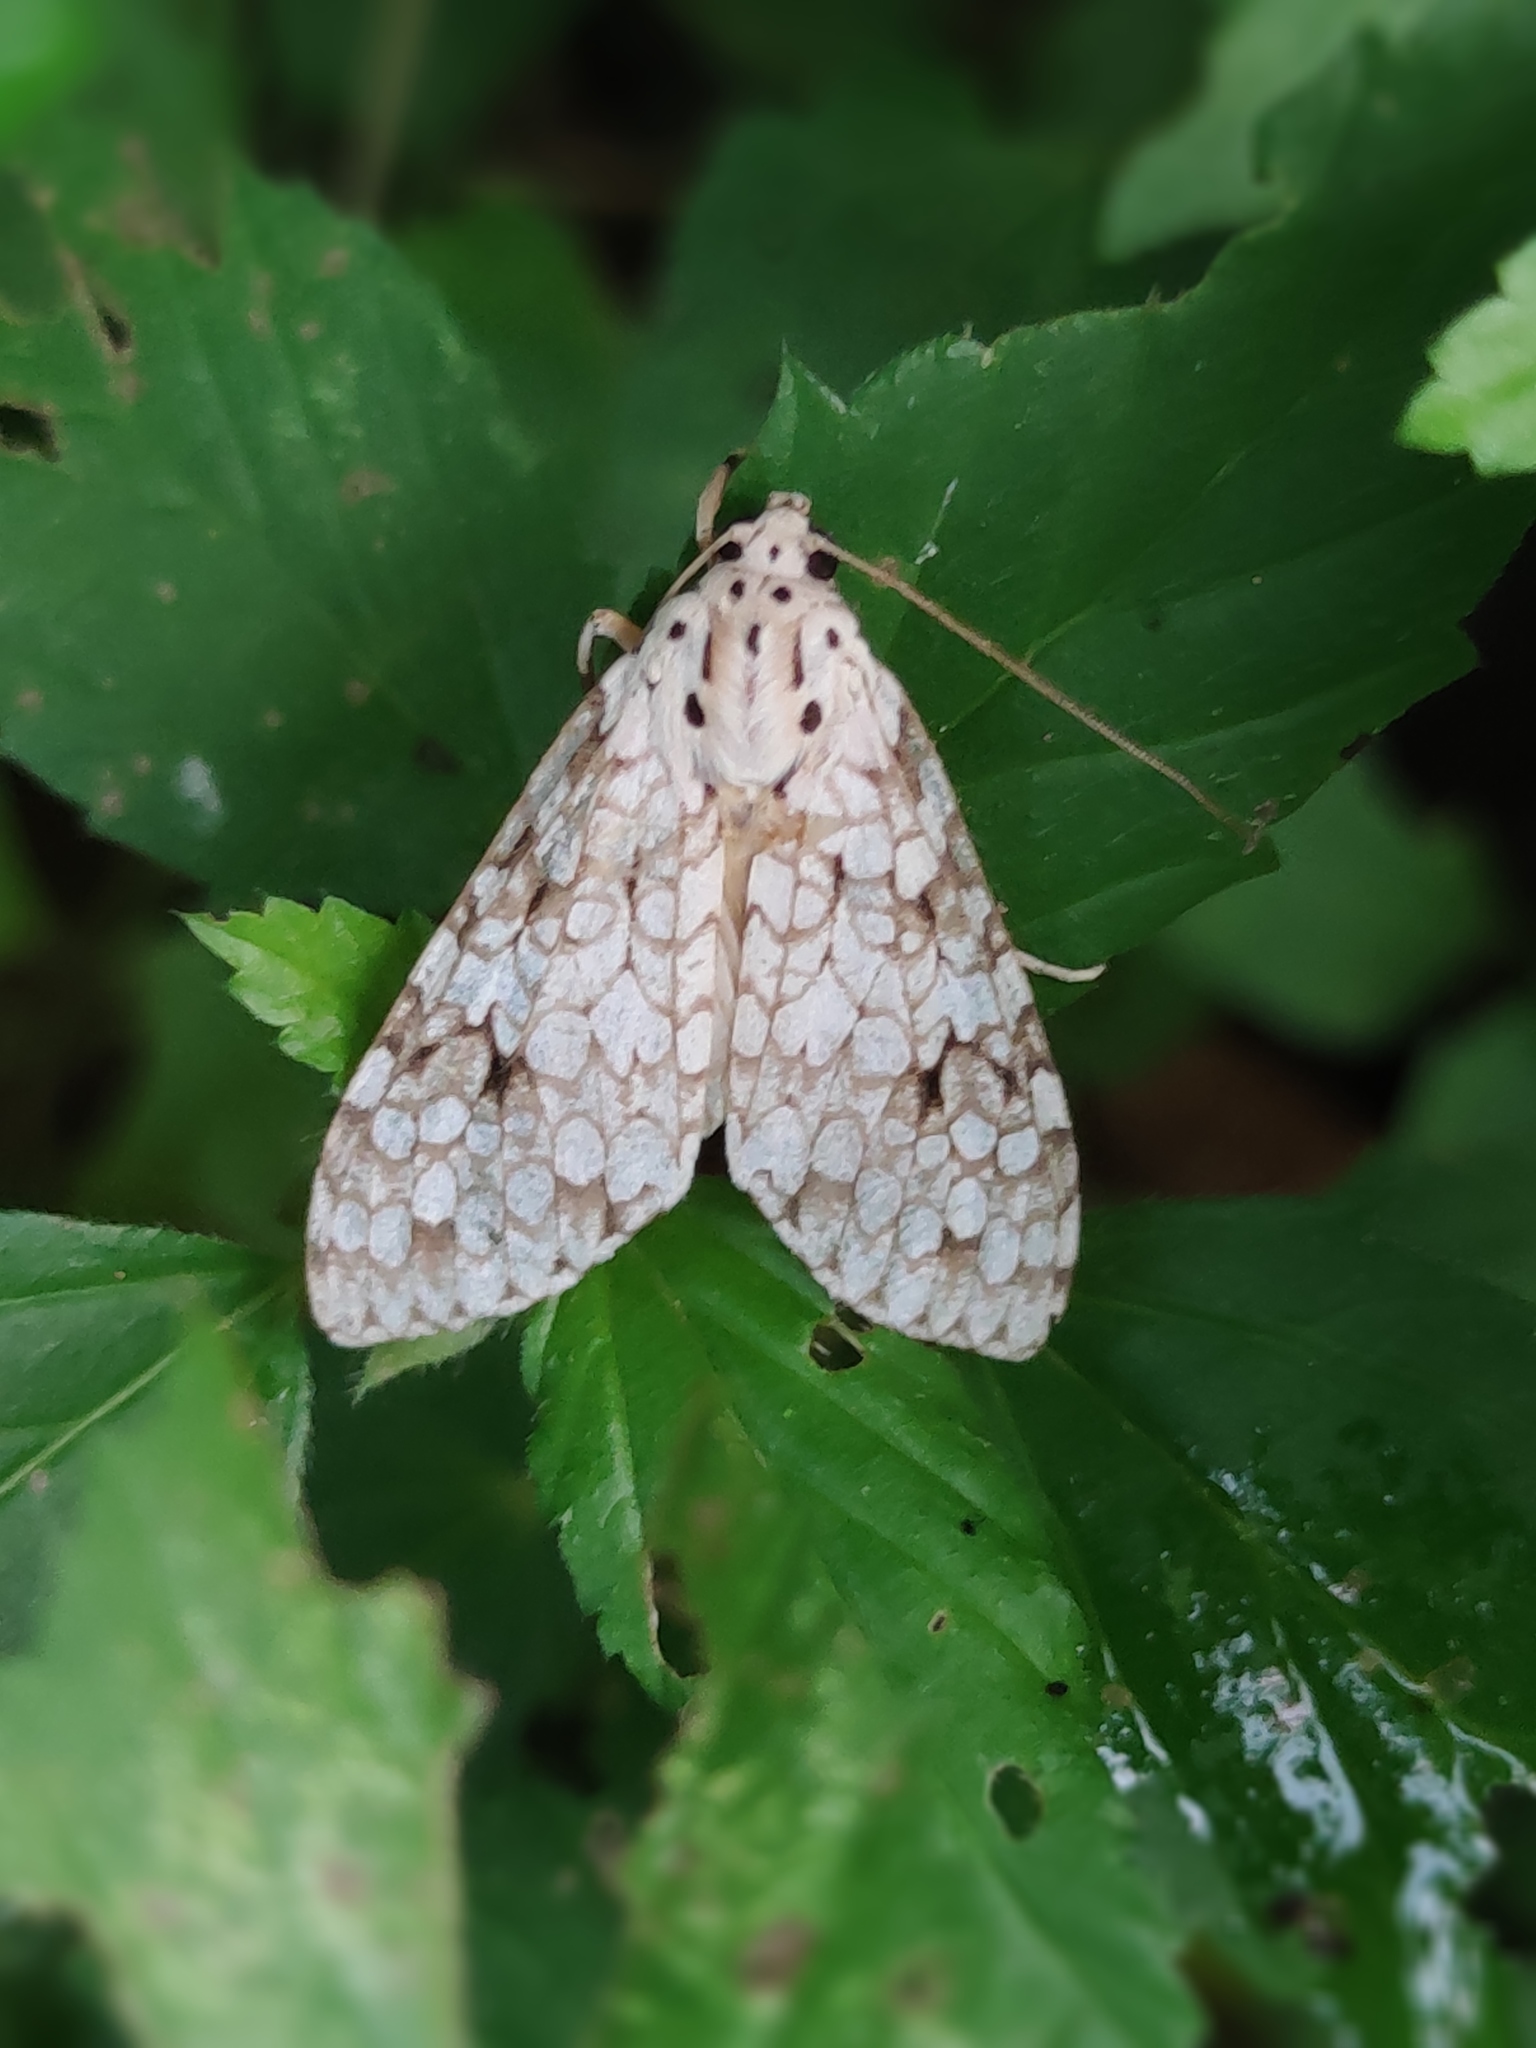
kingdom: Animalia
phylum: Arthropoda
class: Insecta
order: Lepidoptera
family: Erebidae
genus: Carales
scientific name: Carales astur
